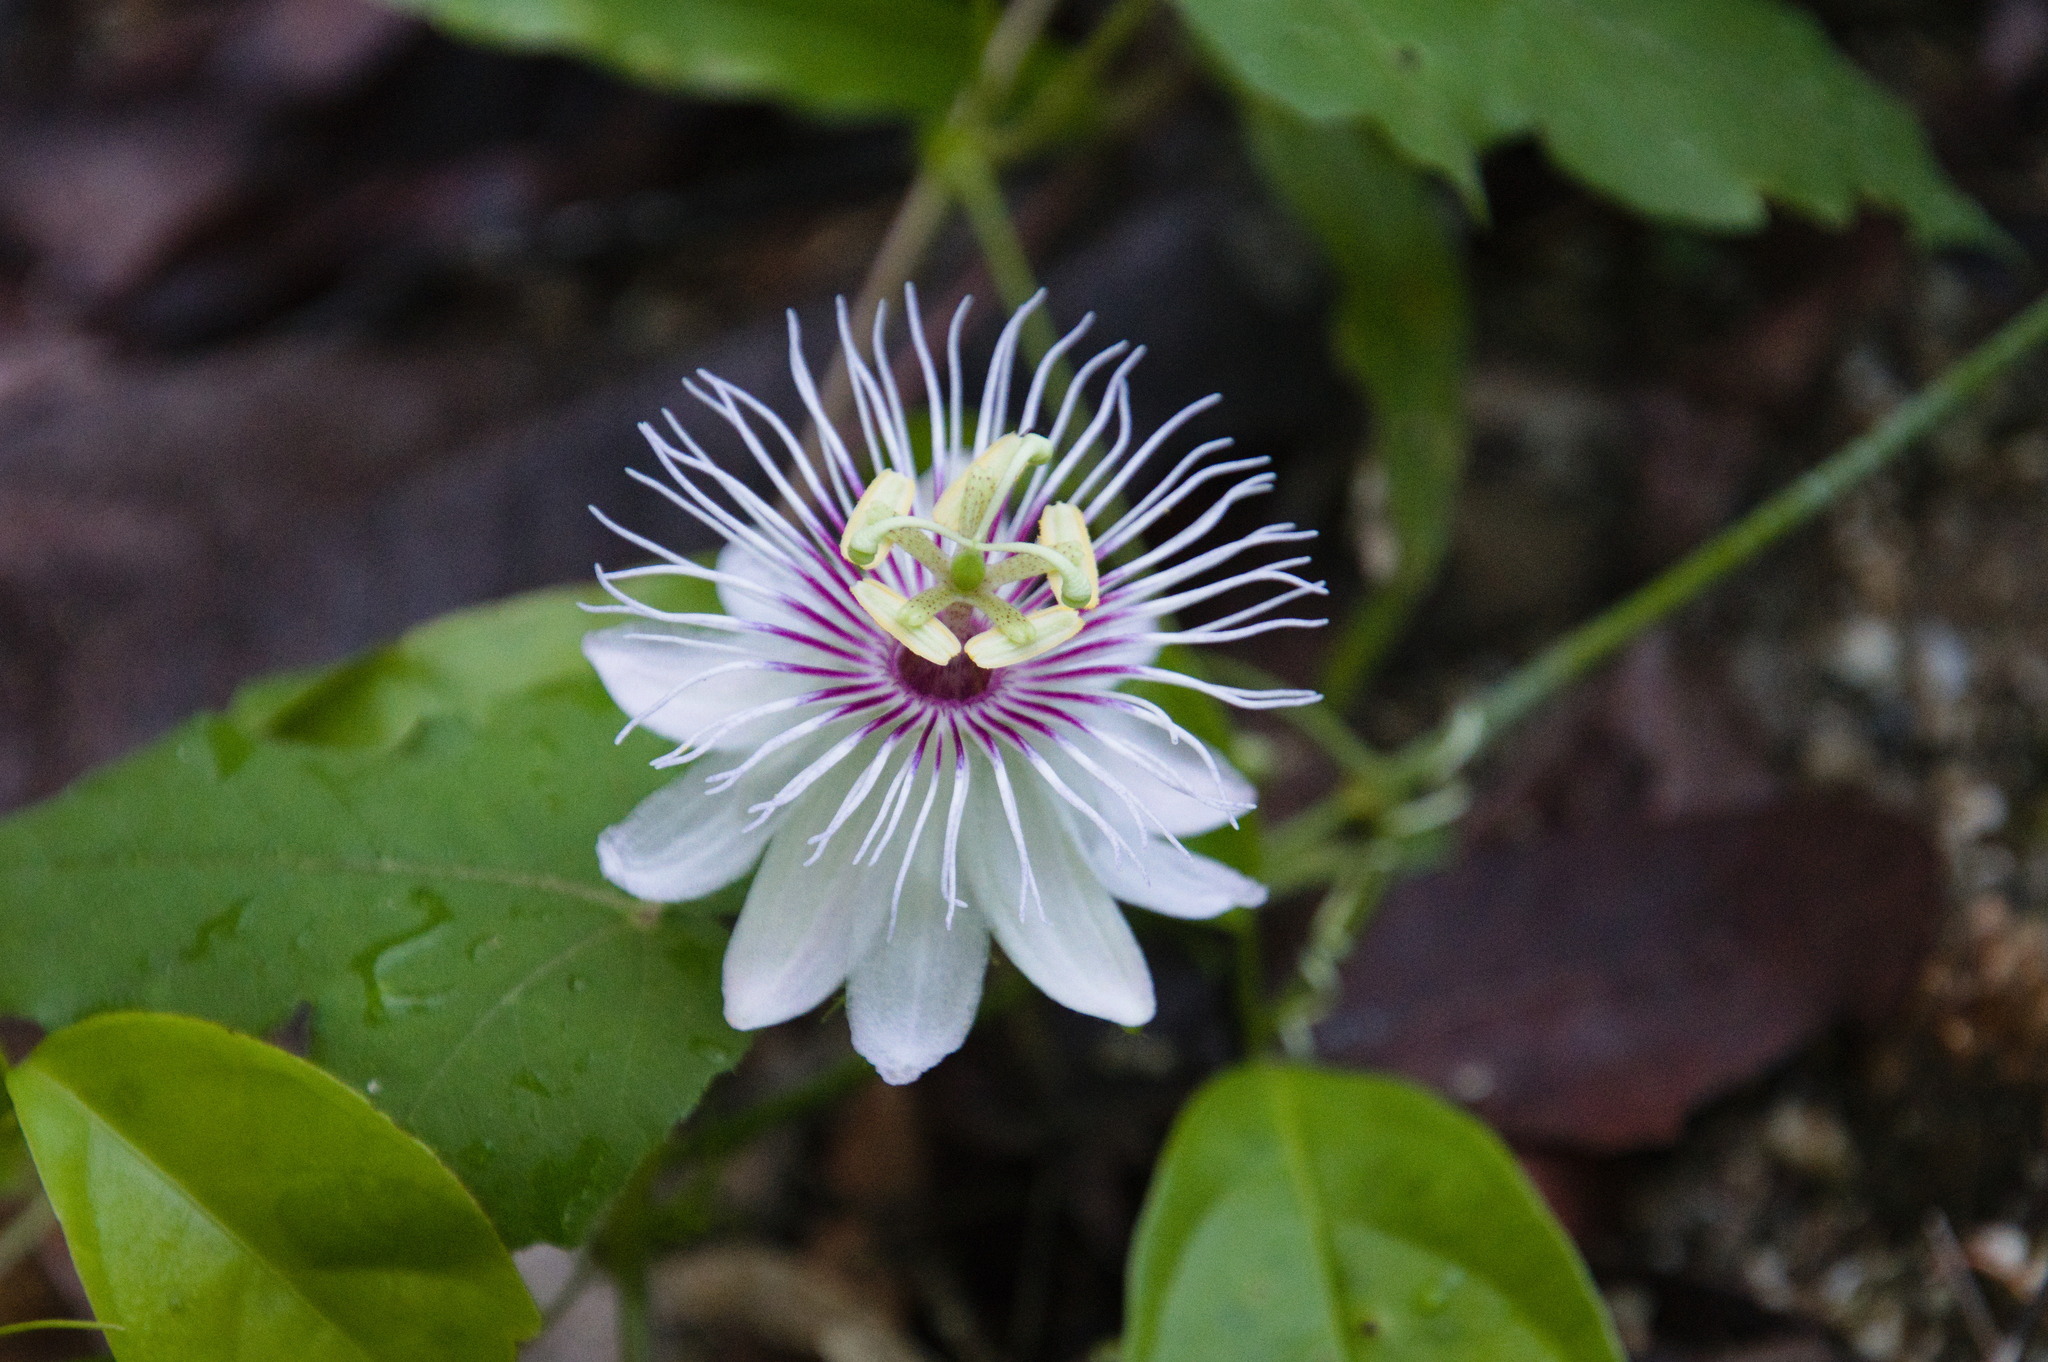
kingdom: Plantae
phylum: Tracheophyta
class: Magnoliopsida
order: Malpighiales
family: Passifloraceae
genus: Passiflora
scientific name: Passiflora foetida
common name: Fetid passionflower
